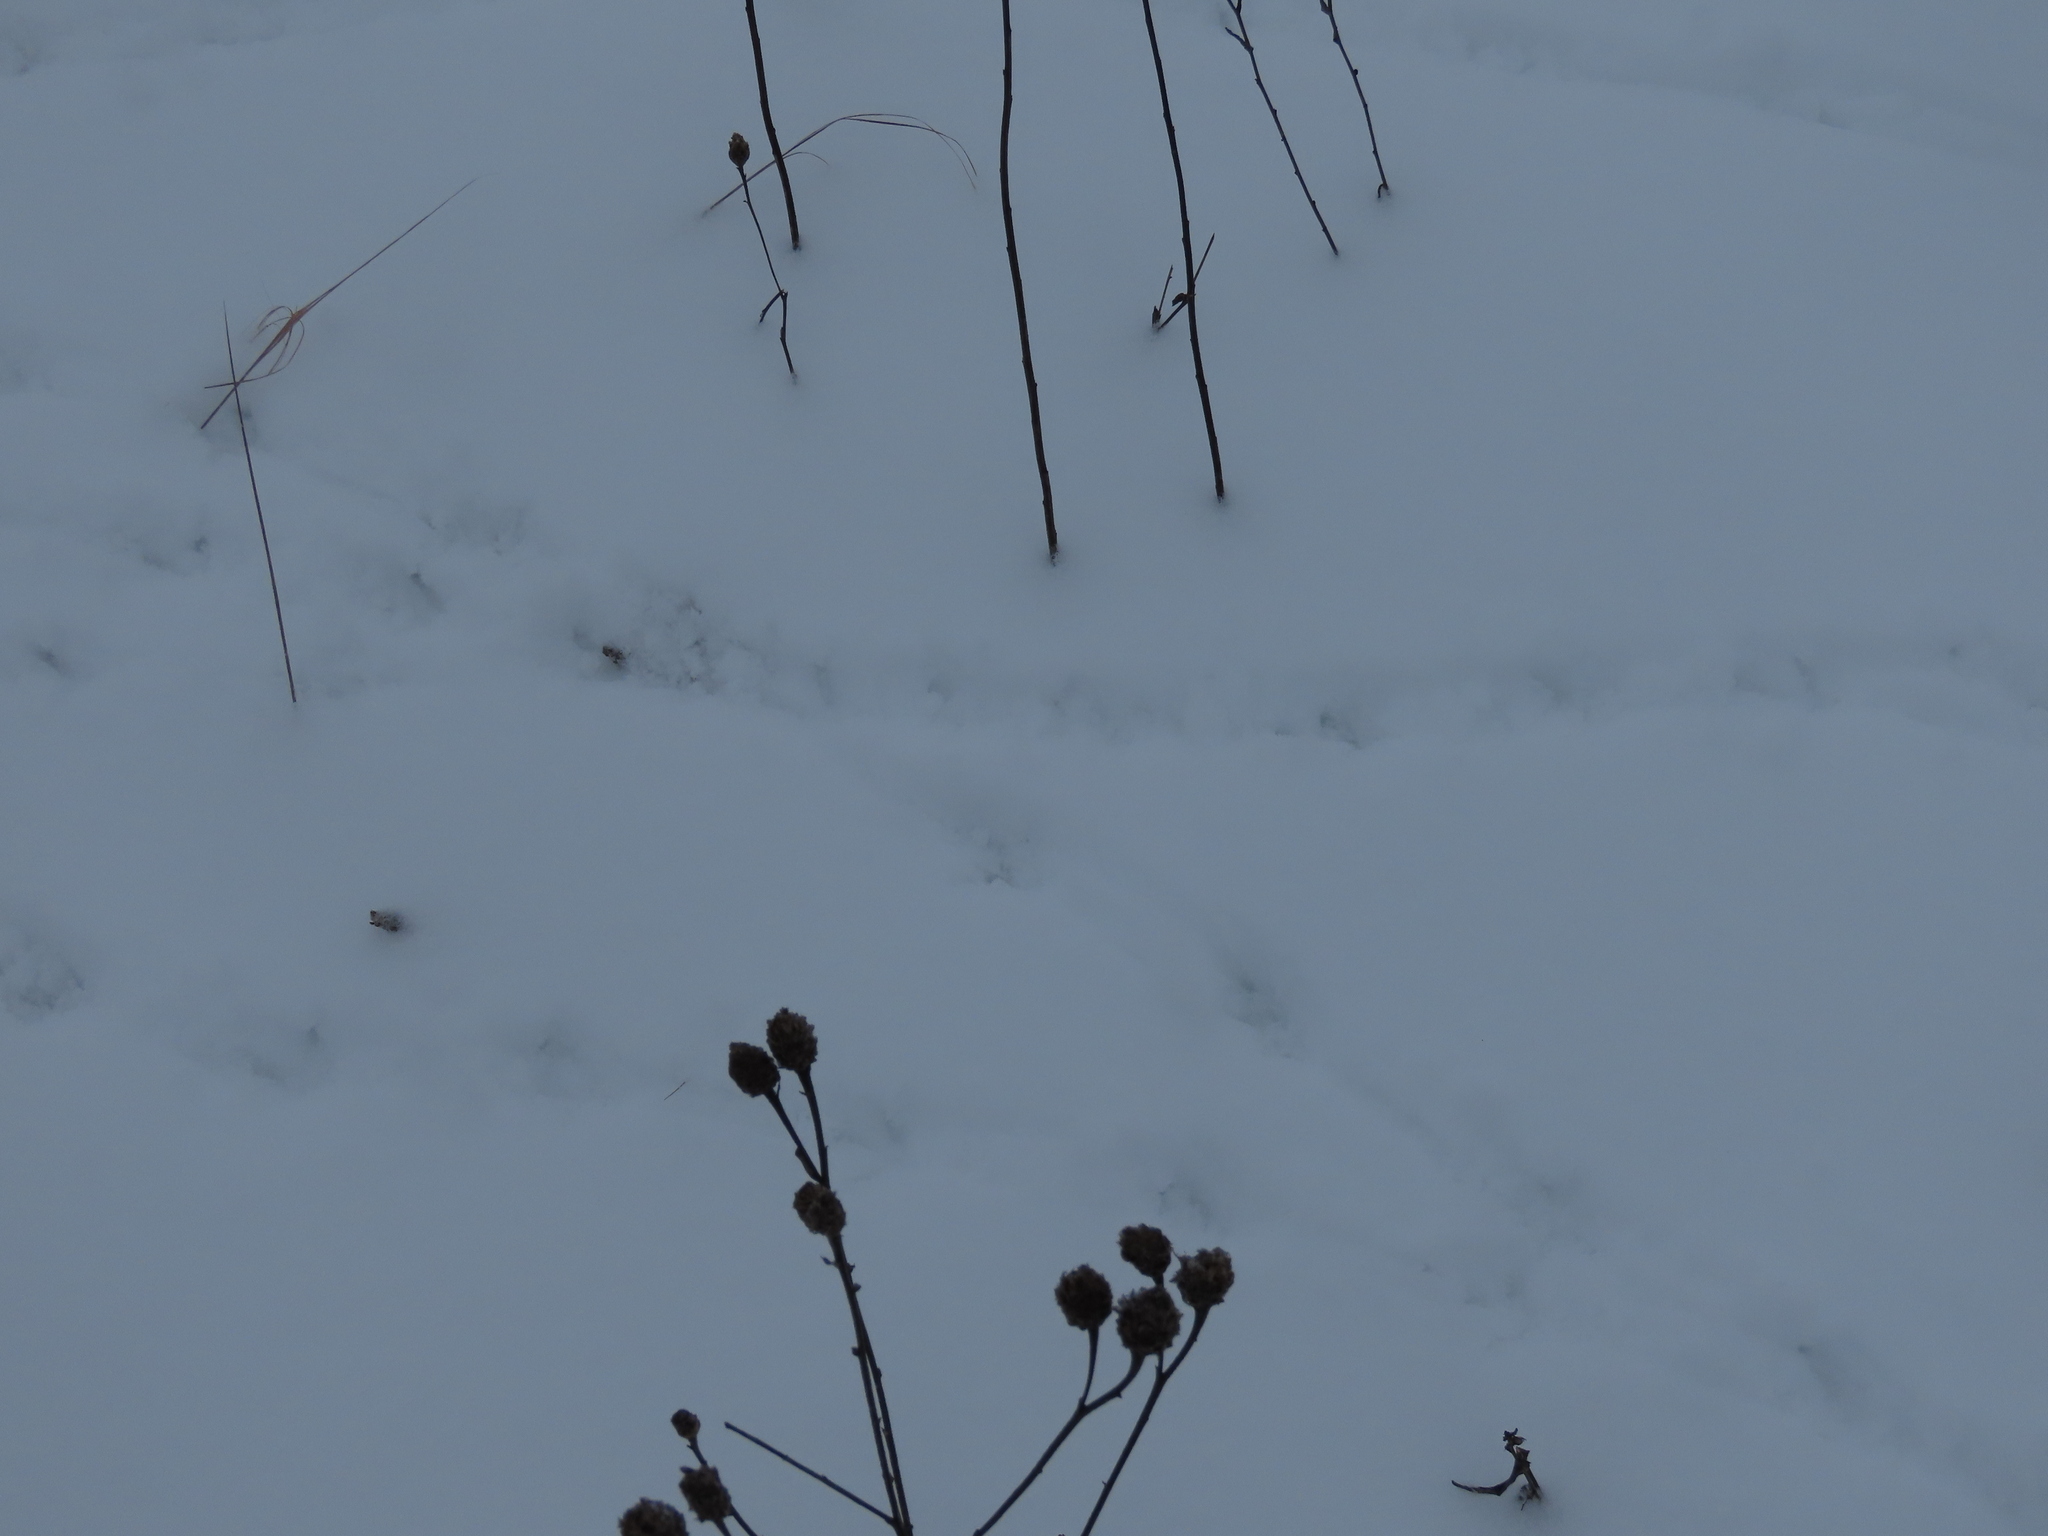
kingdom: Animalia
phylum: Chordata
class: Aves
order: Galliformes
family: Phasianidae
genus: Perdix
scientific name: Perdix perdix
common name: Grey partridge
